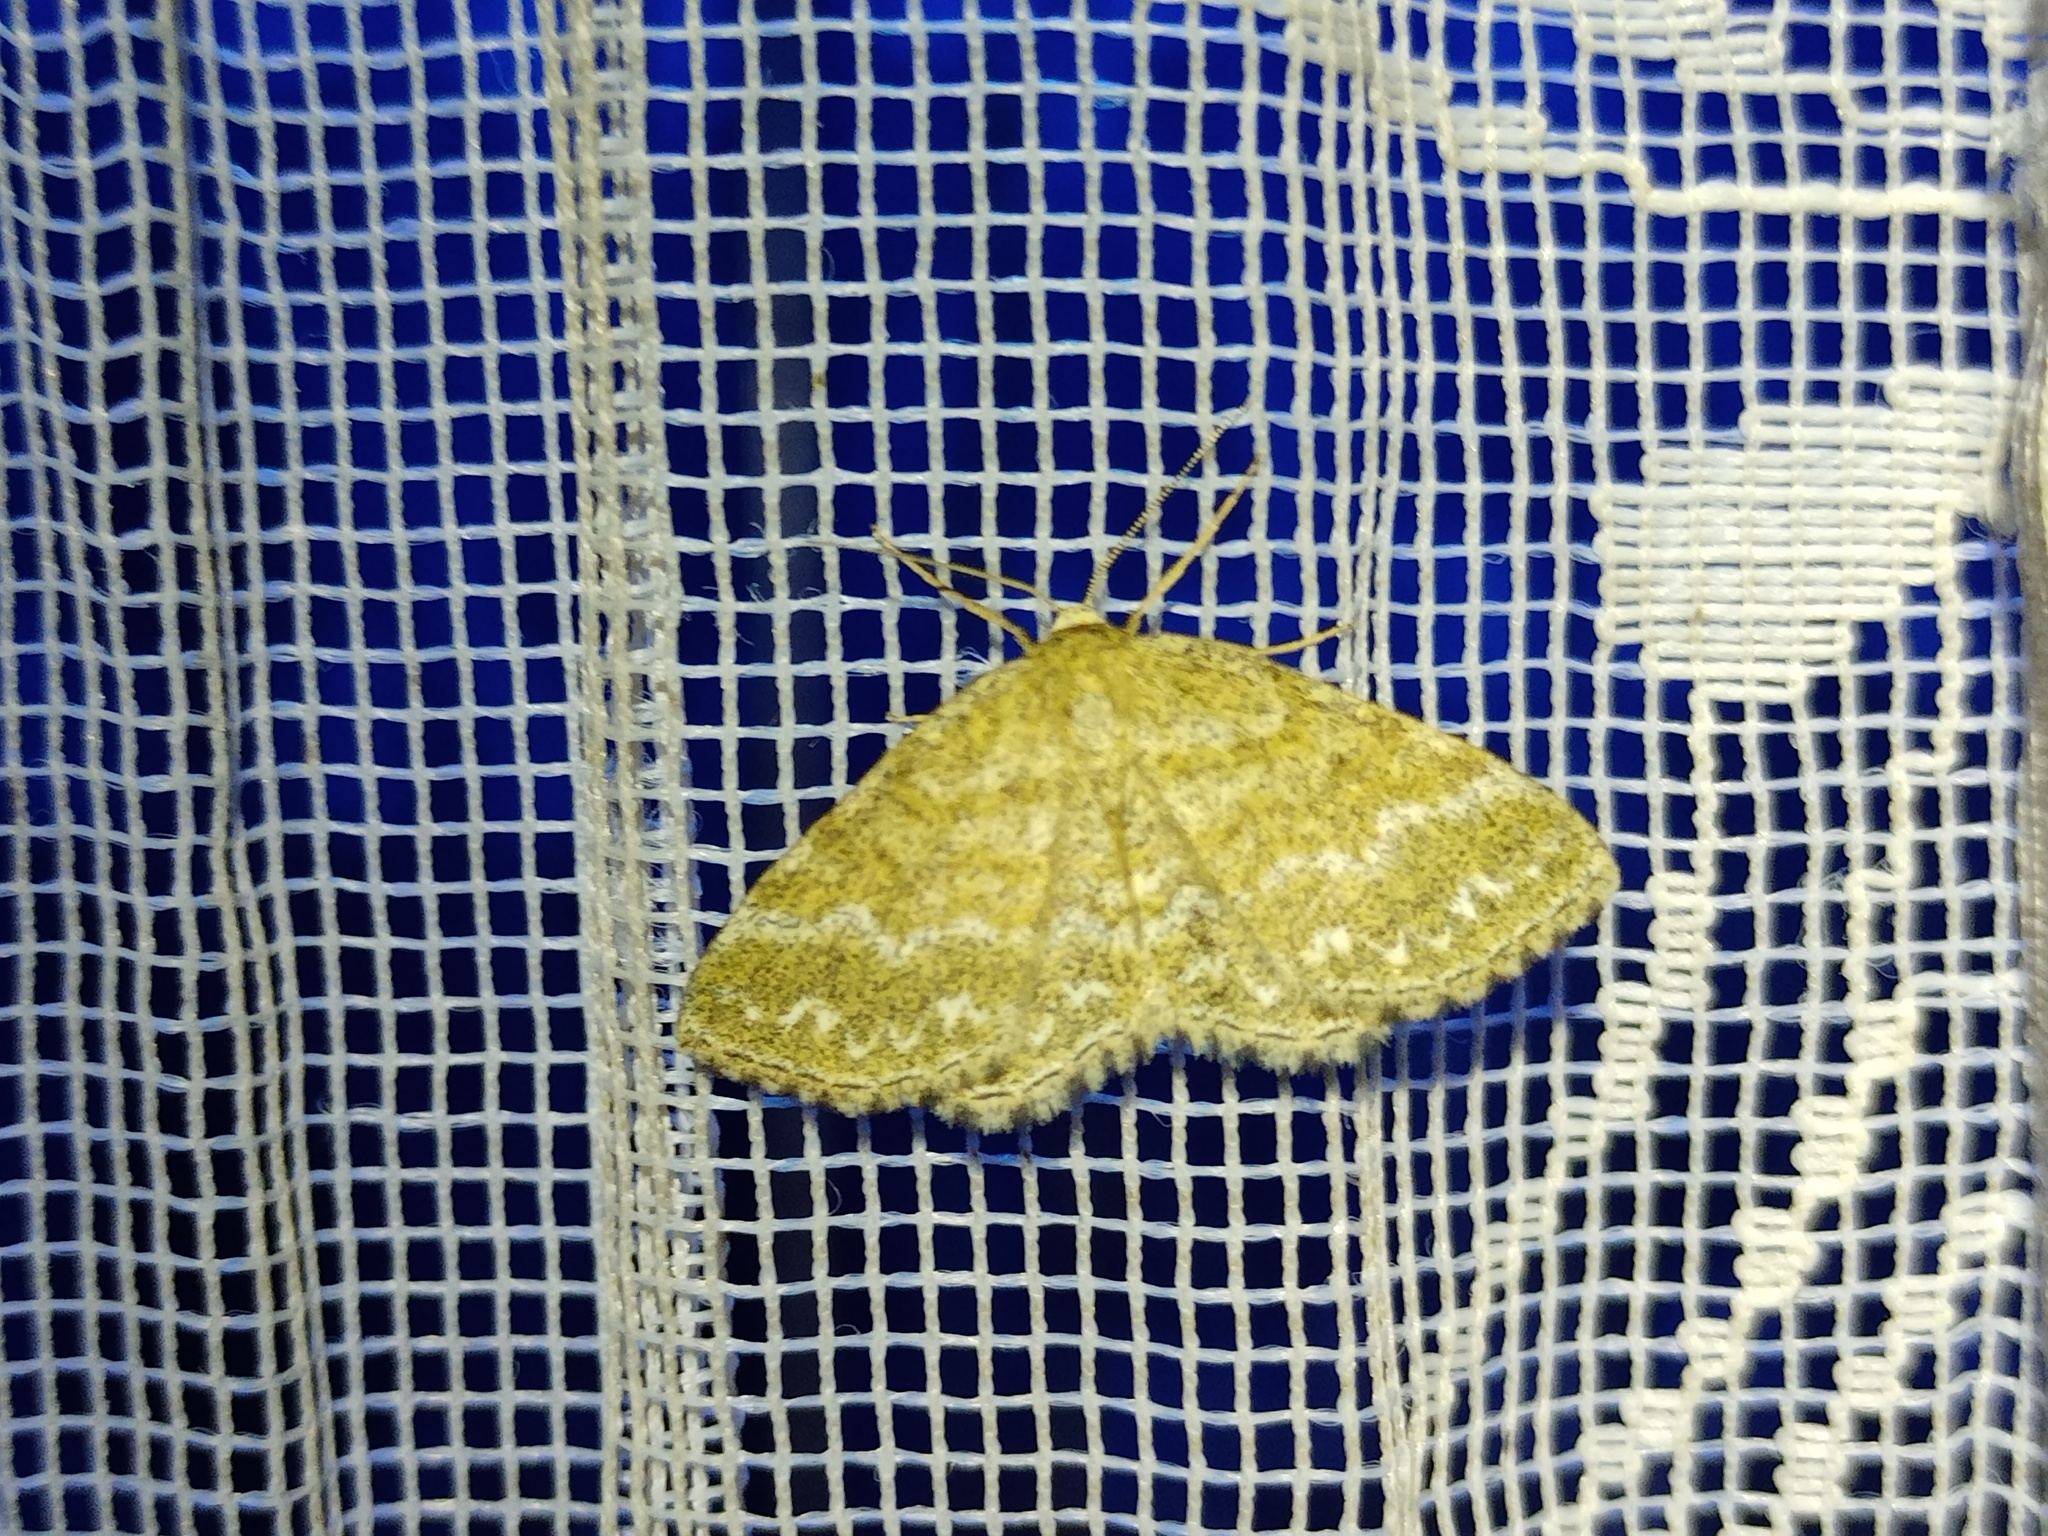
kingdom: Animalia
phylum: Arthropoda
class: Insecta
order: Lepidoptera
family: Geometridae
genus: Scopula
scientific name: Scopula immorata
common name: Lewes wave
